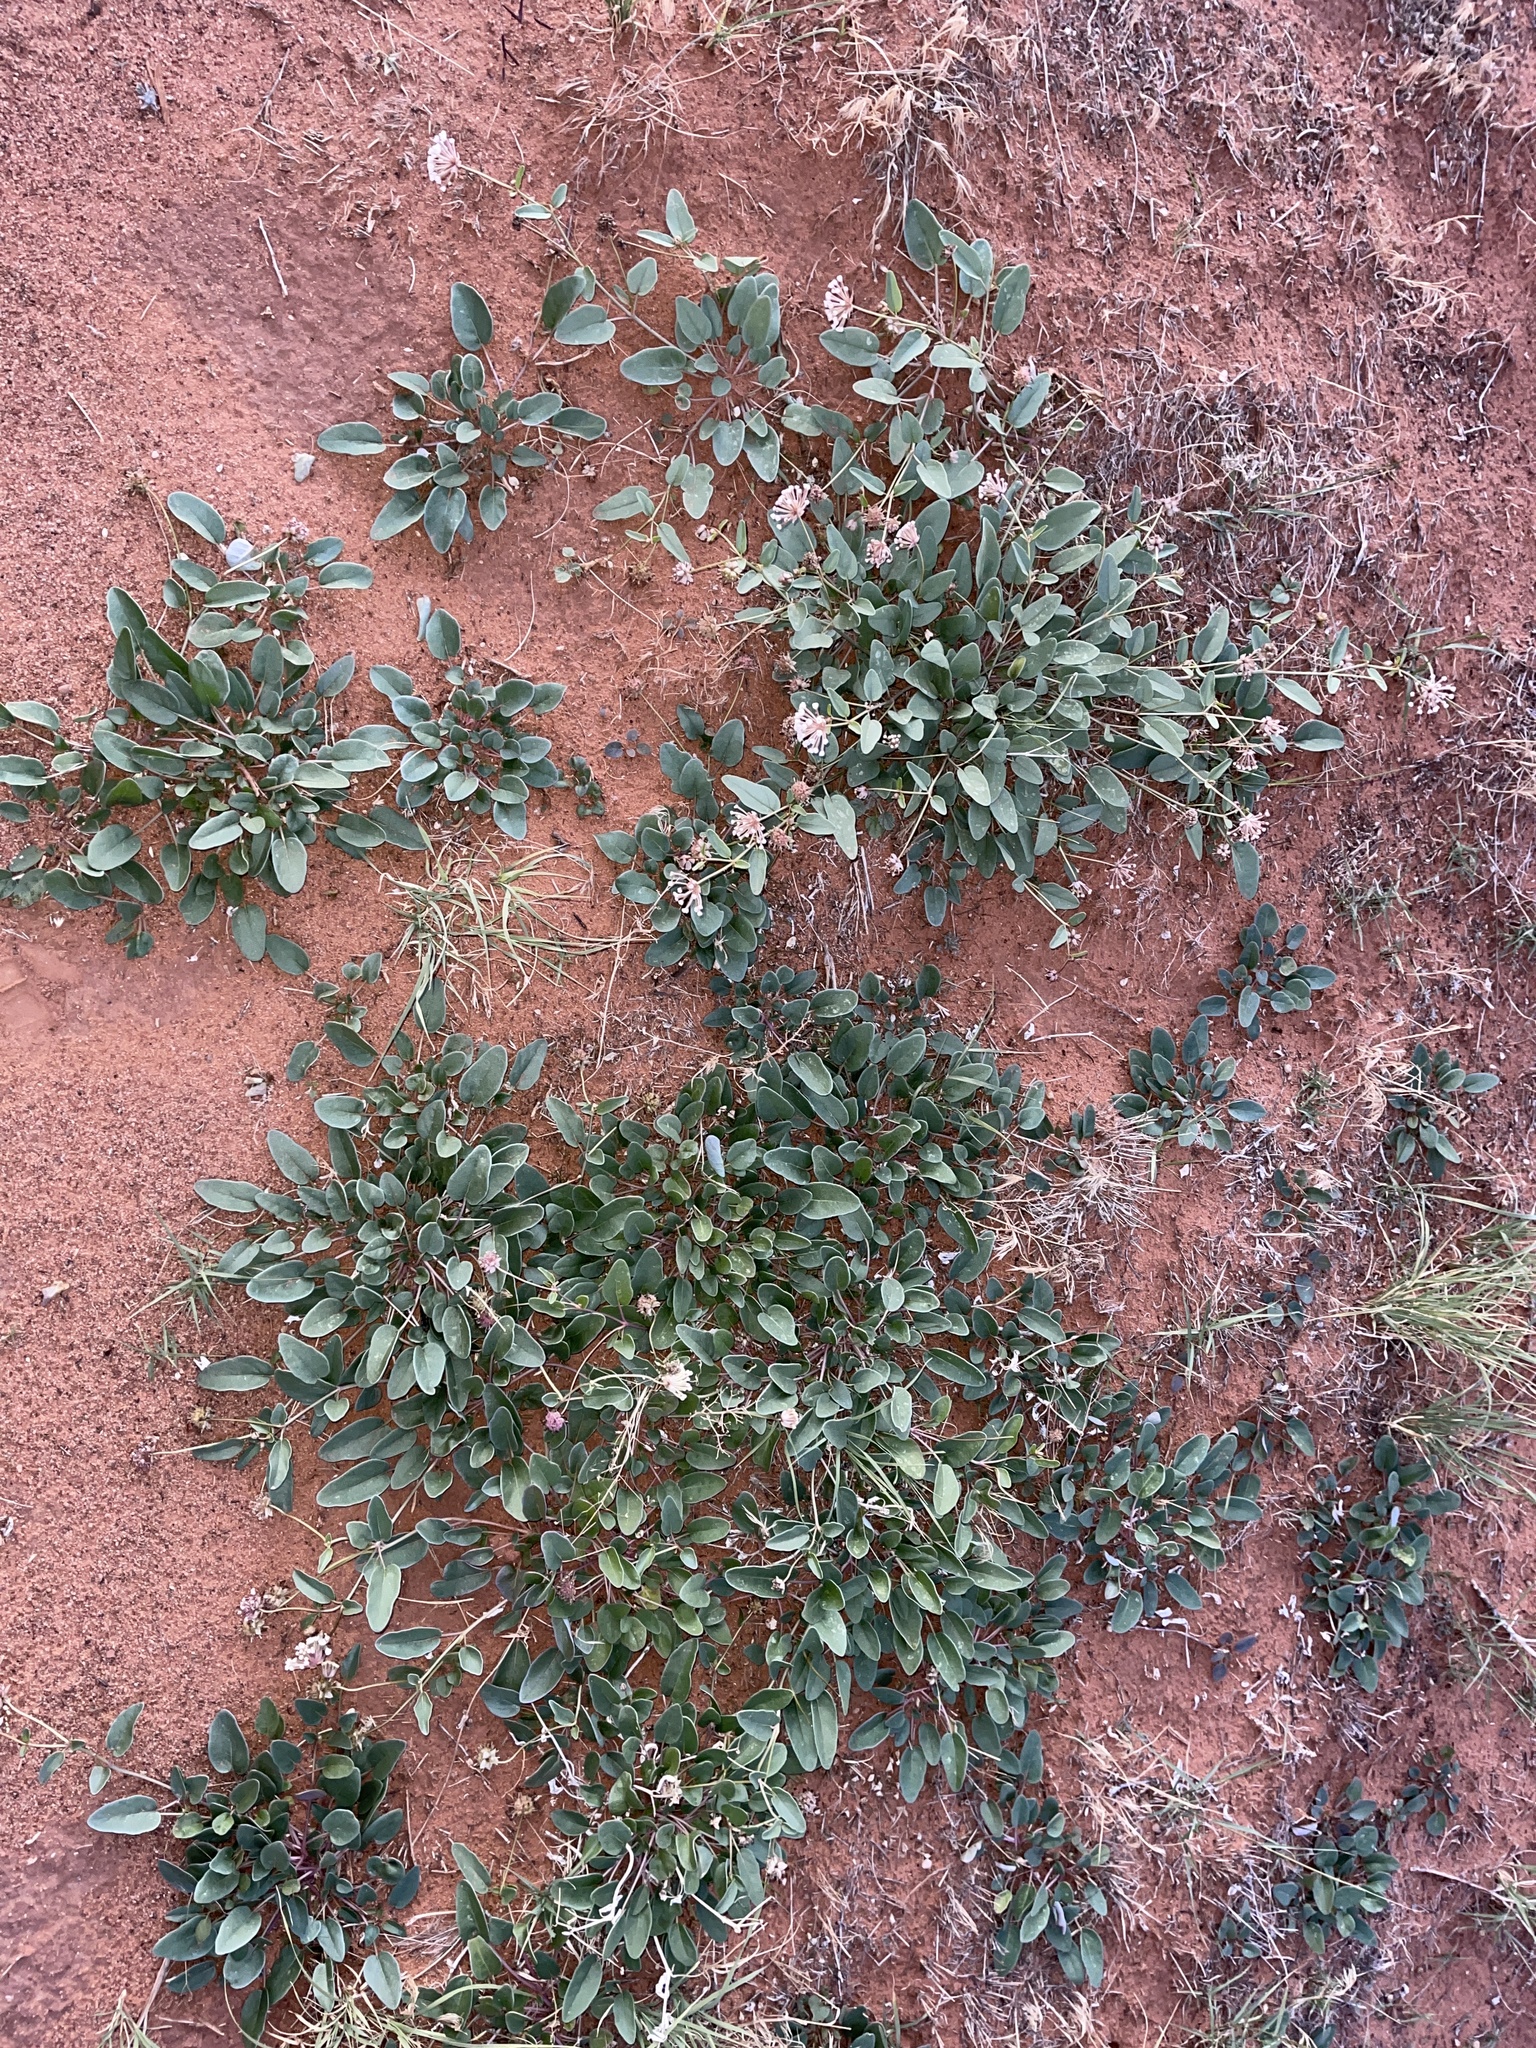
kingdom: Plantae
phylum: Tracheophyta
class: Magnoliopsida
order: Caryophyllales
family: Nyctaginaceae
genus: Abronia
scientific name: Abronia elliptica
